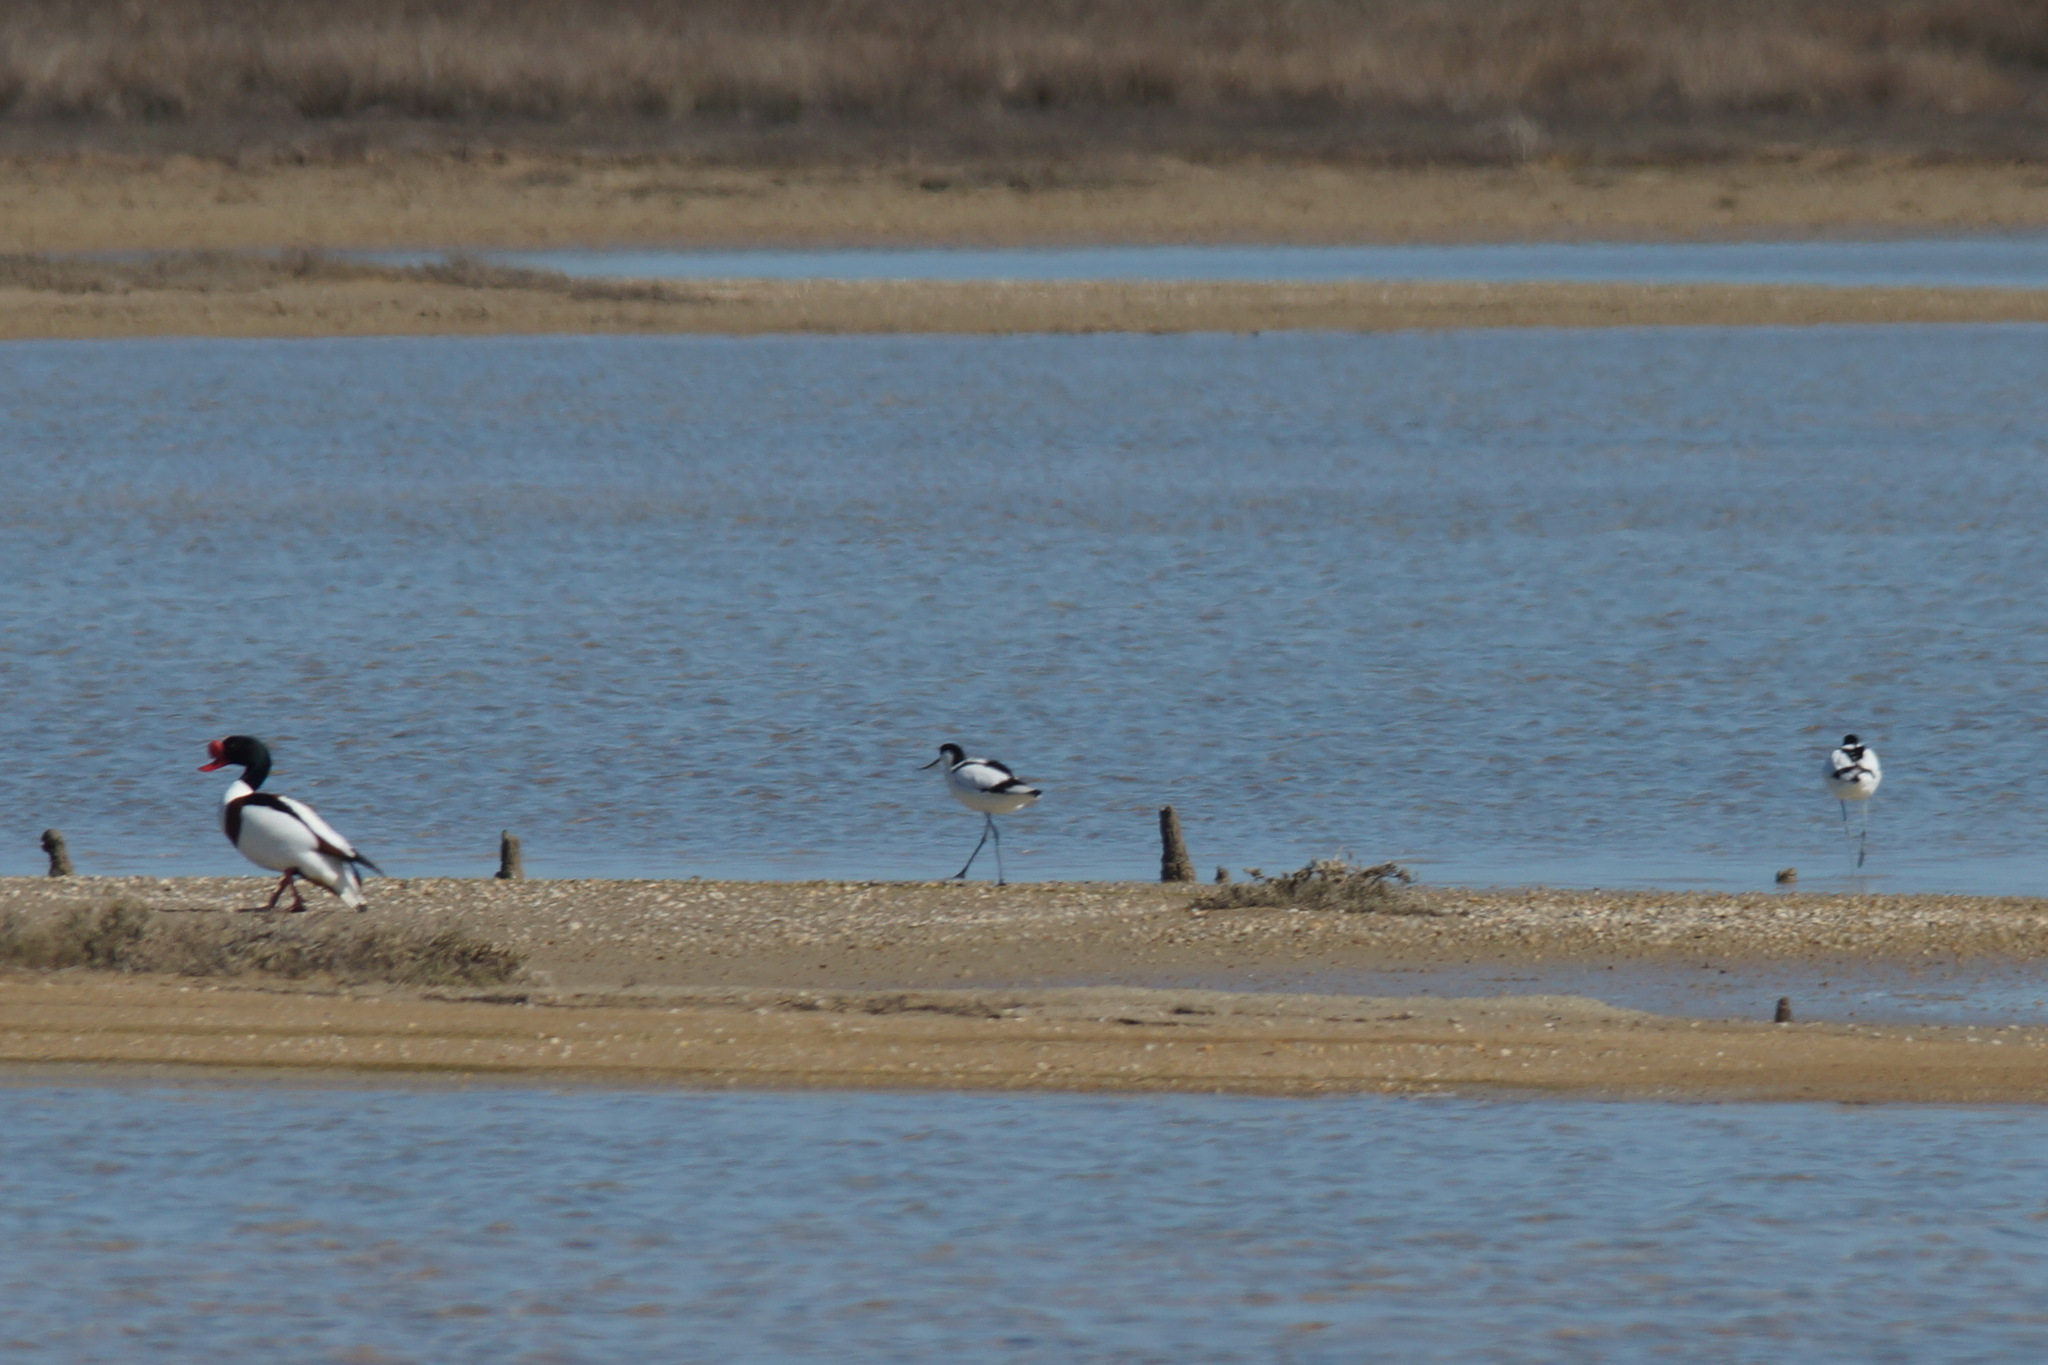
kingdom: Animalia
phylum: Chordata
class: Aves
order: Anseriformes
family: Anatidae
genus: Tadorna
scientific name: Tadorna tadorna
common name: Common shelduck
